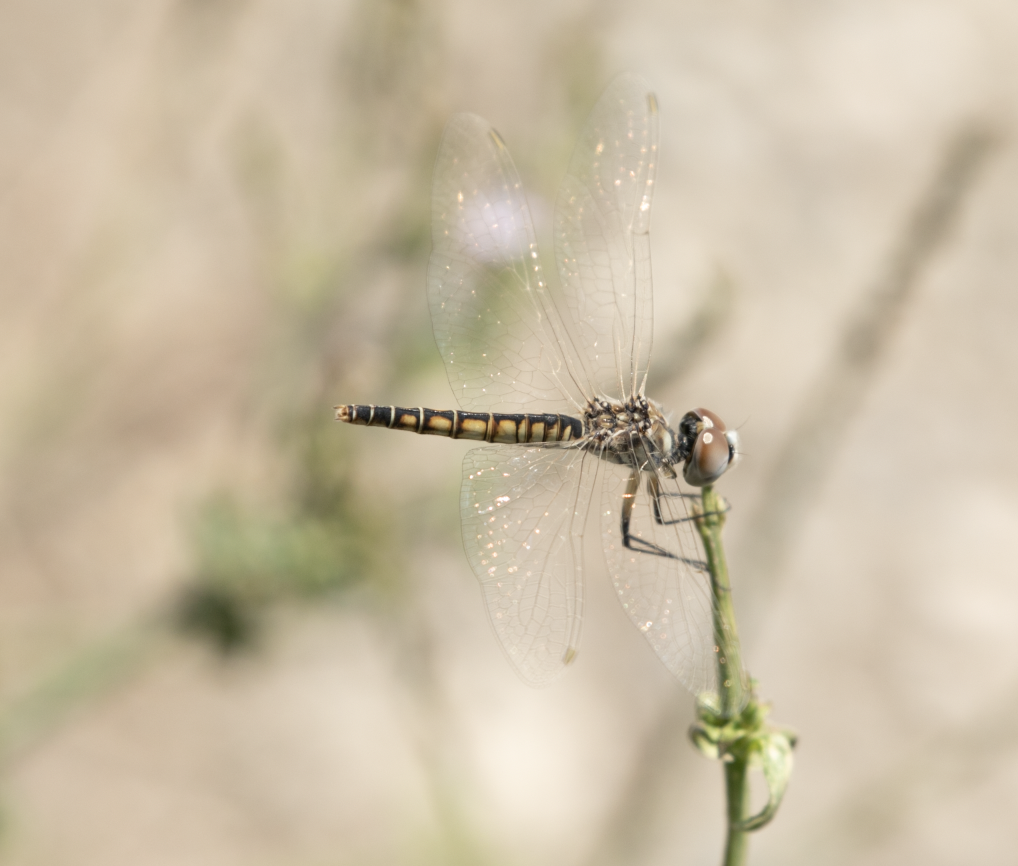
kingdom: Animalia
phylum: Arthropoda
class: Insecta
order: Odonata
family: Libellulidae
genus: Selysiothemis
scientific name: Selysiothemis nigra
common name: Black pennant
